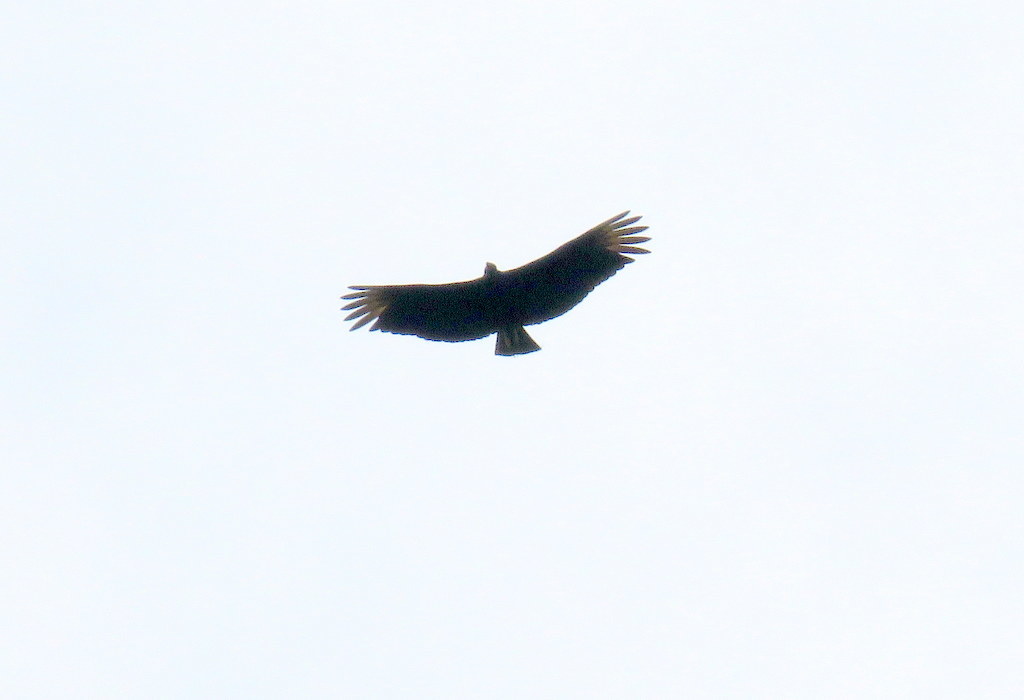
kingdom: Animalia
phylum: Chordata
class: Aves
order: Accipitriformes
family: Cathartidae
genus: Coragyps
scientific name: Coragyps atratus
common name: Black vulture
